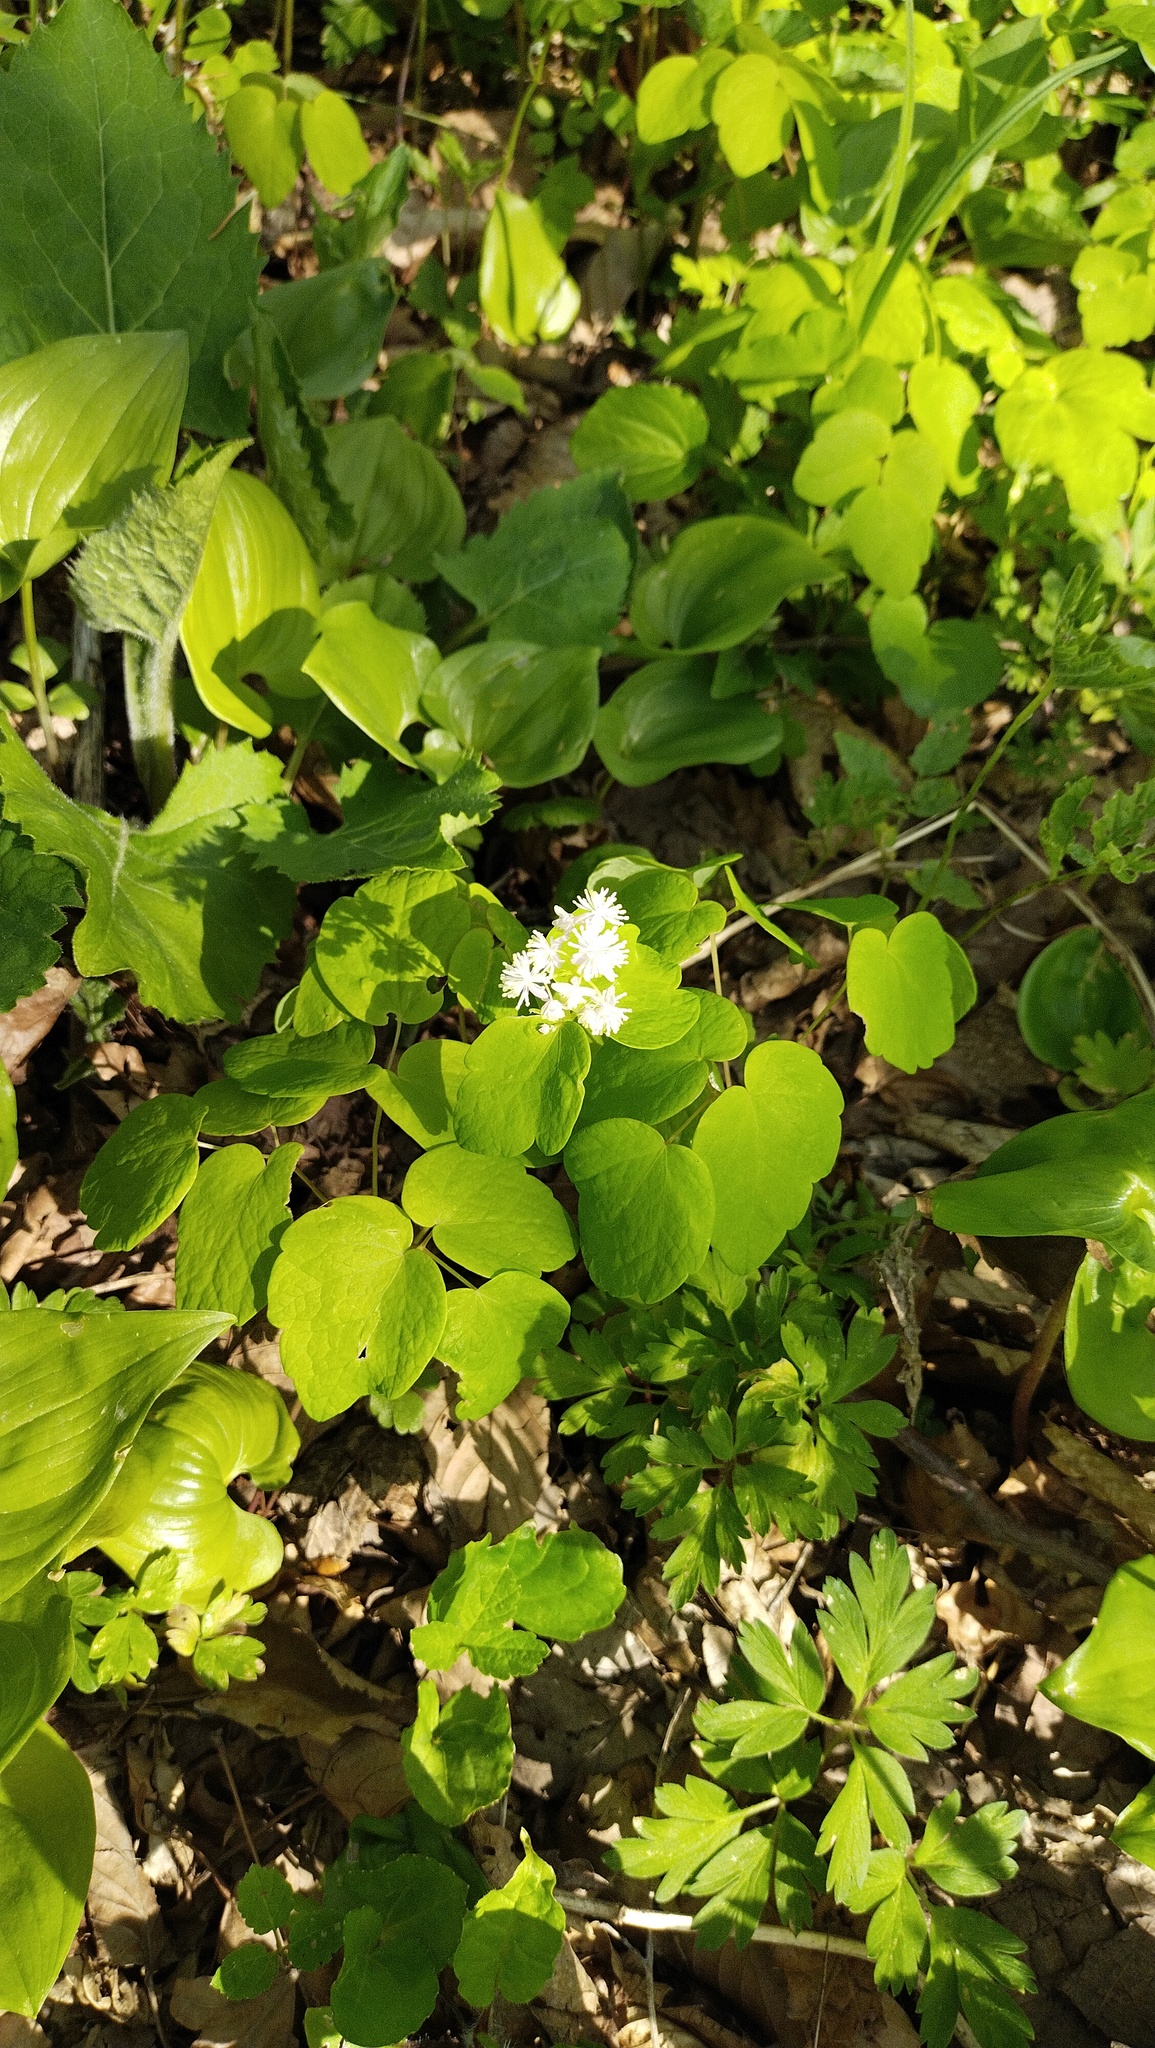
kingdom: Plantae
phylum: Tracheophyta
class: Magnoliopsida
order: Ranunculales
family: Ranunculaceae
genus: Thalictrum
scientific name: Thalictrum filamentosum
